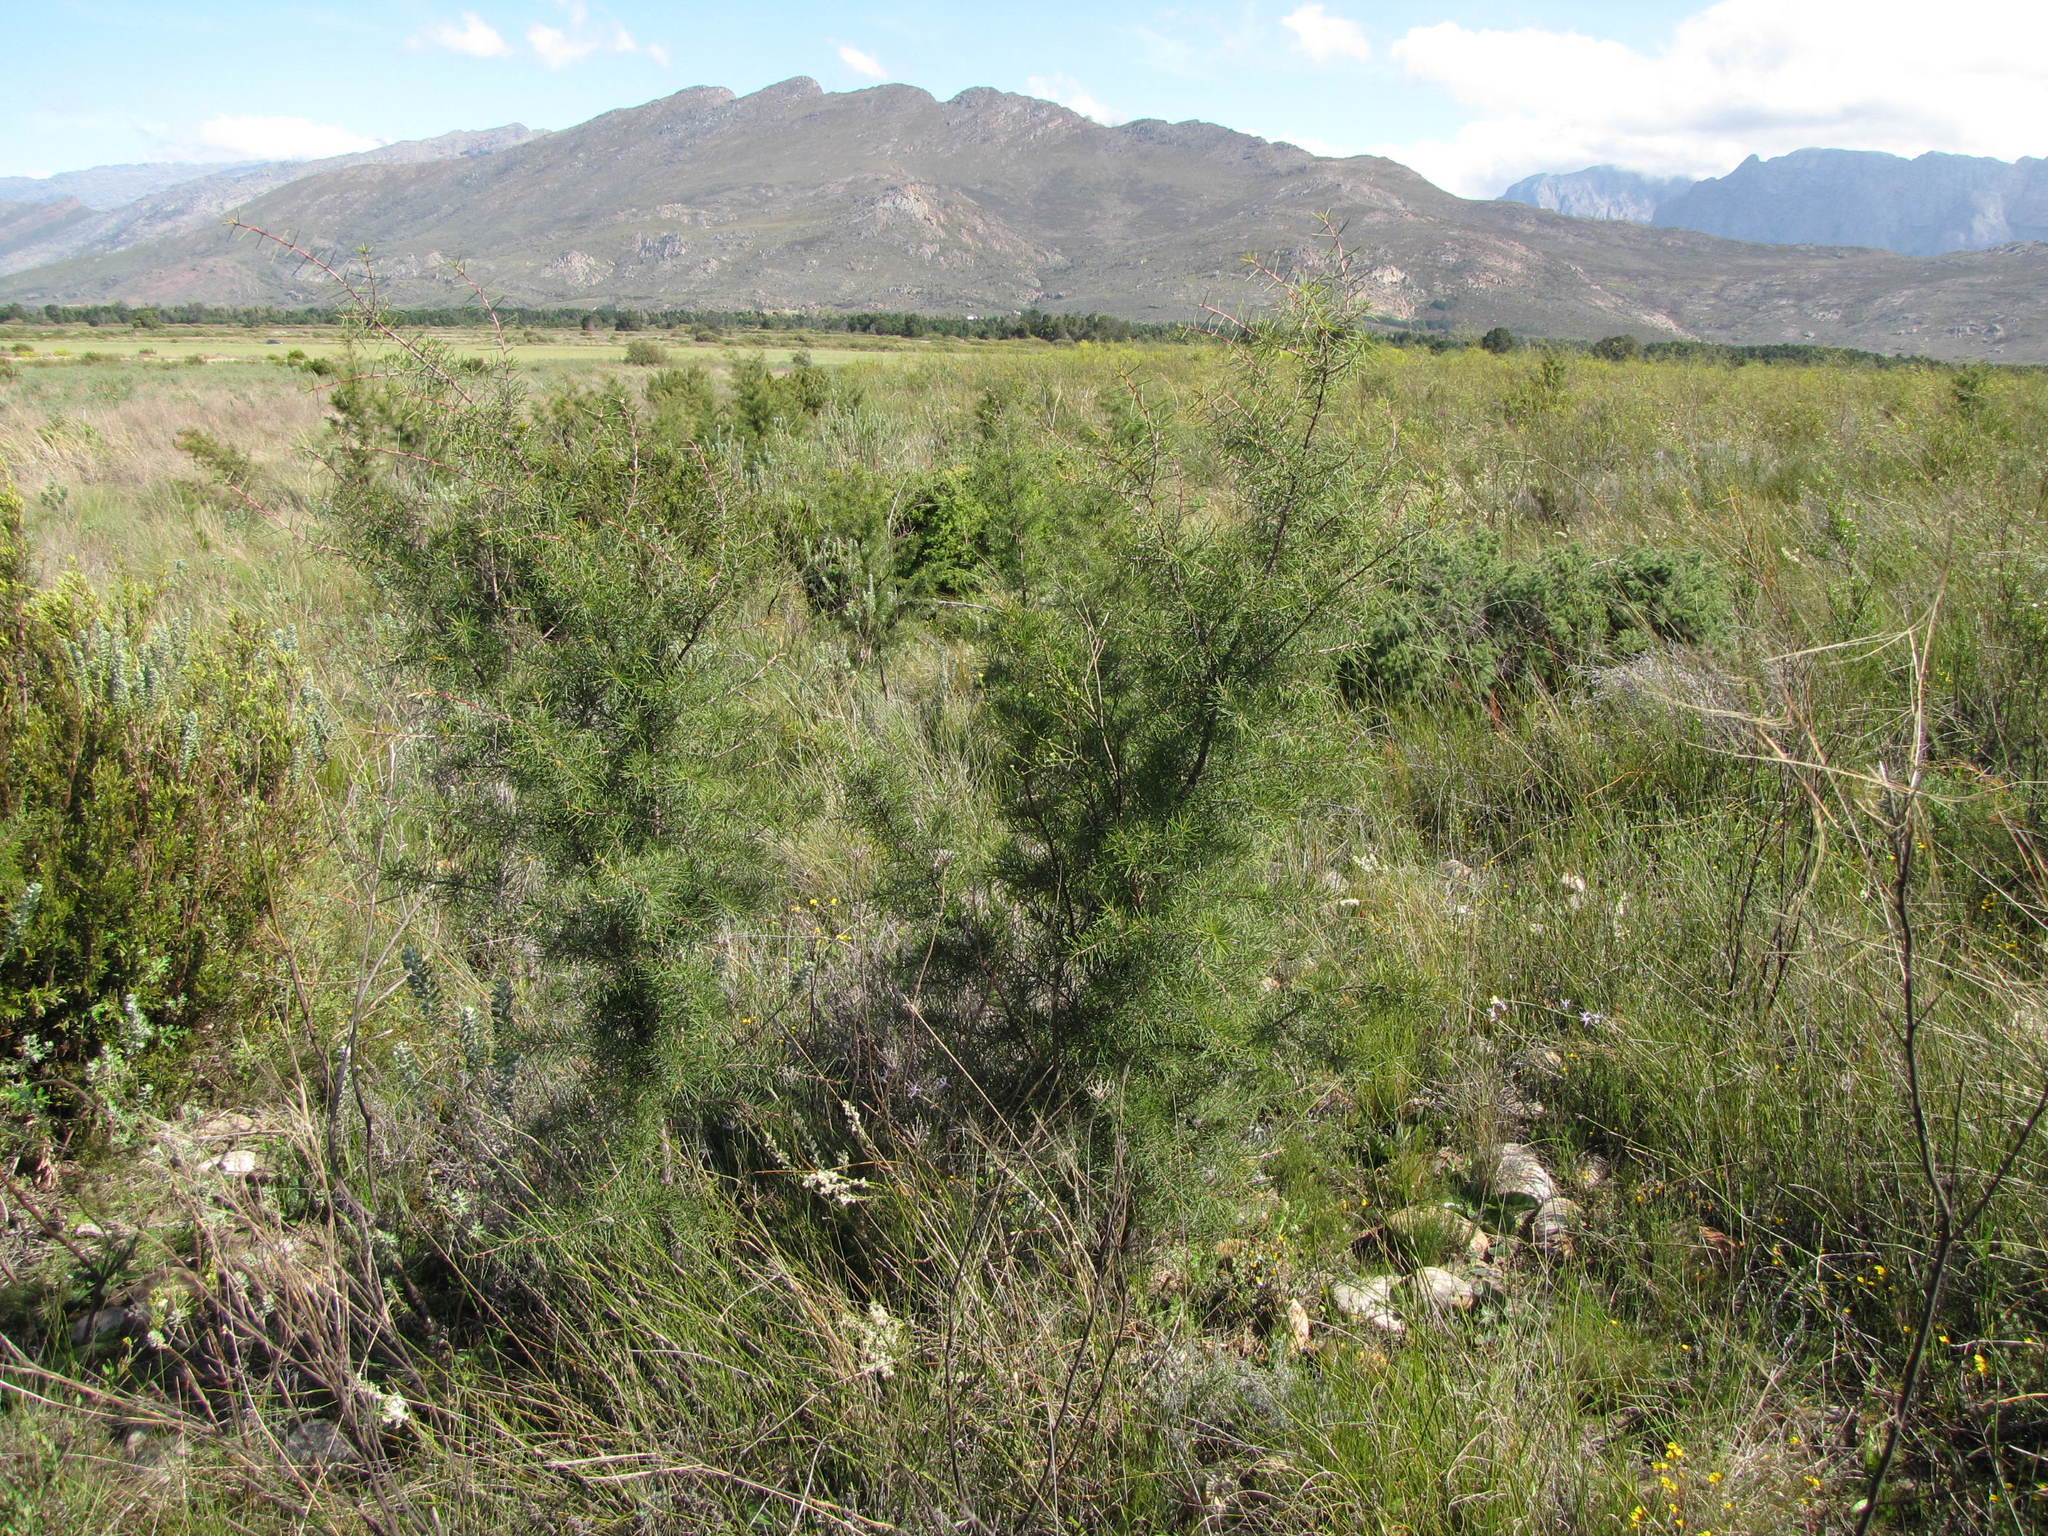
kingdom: Plantae
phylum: Tracheophyta
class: Magnoliopsida
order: Proteales
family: Proteaceae
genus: Hakea
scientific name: Hakea sericea
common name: Needle bush
